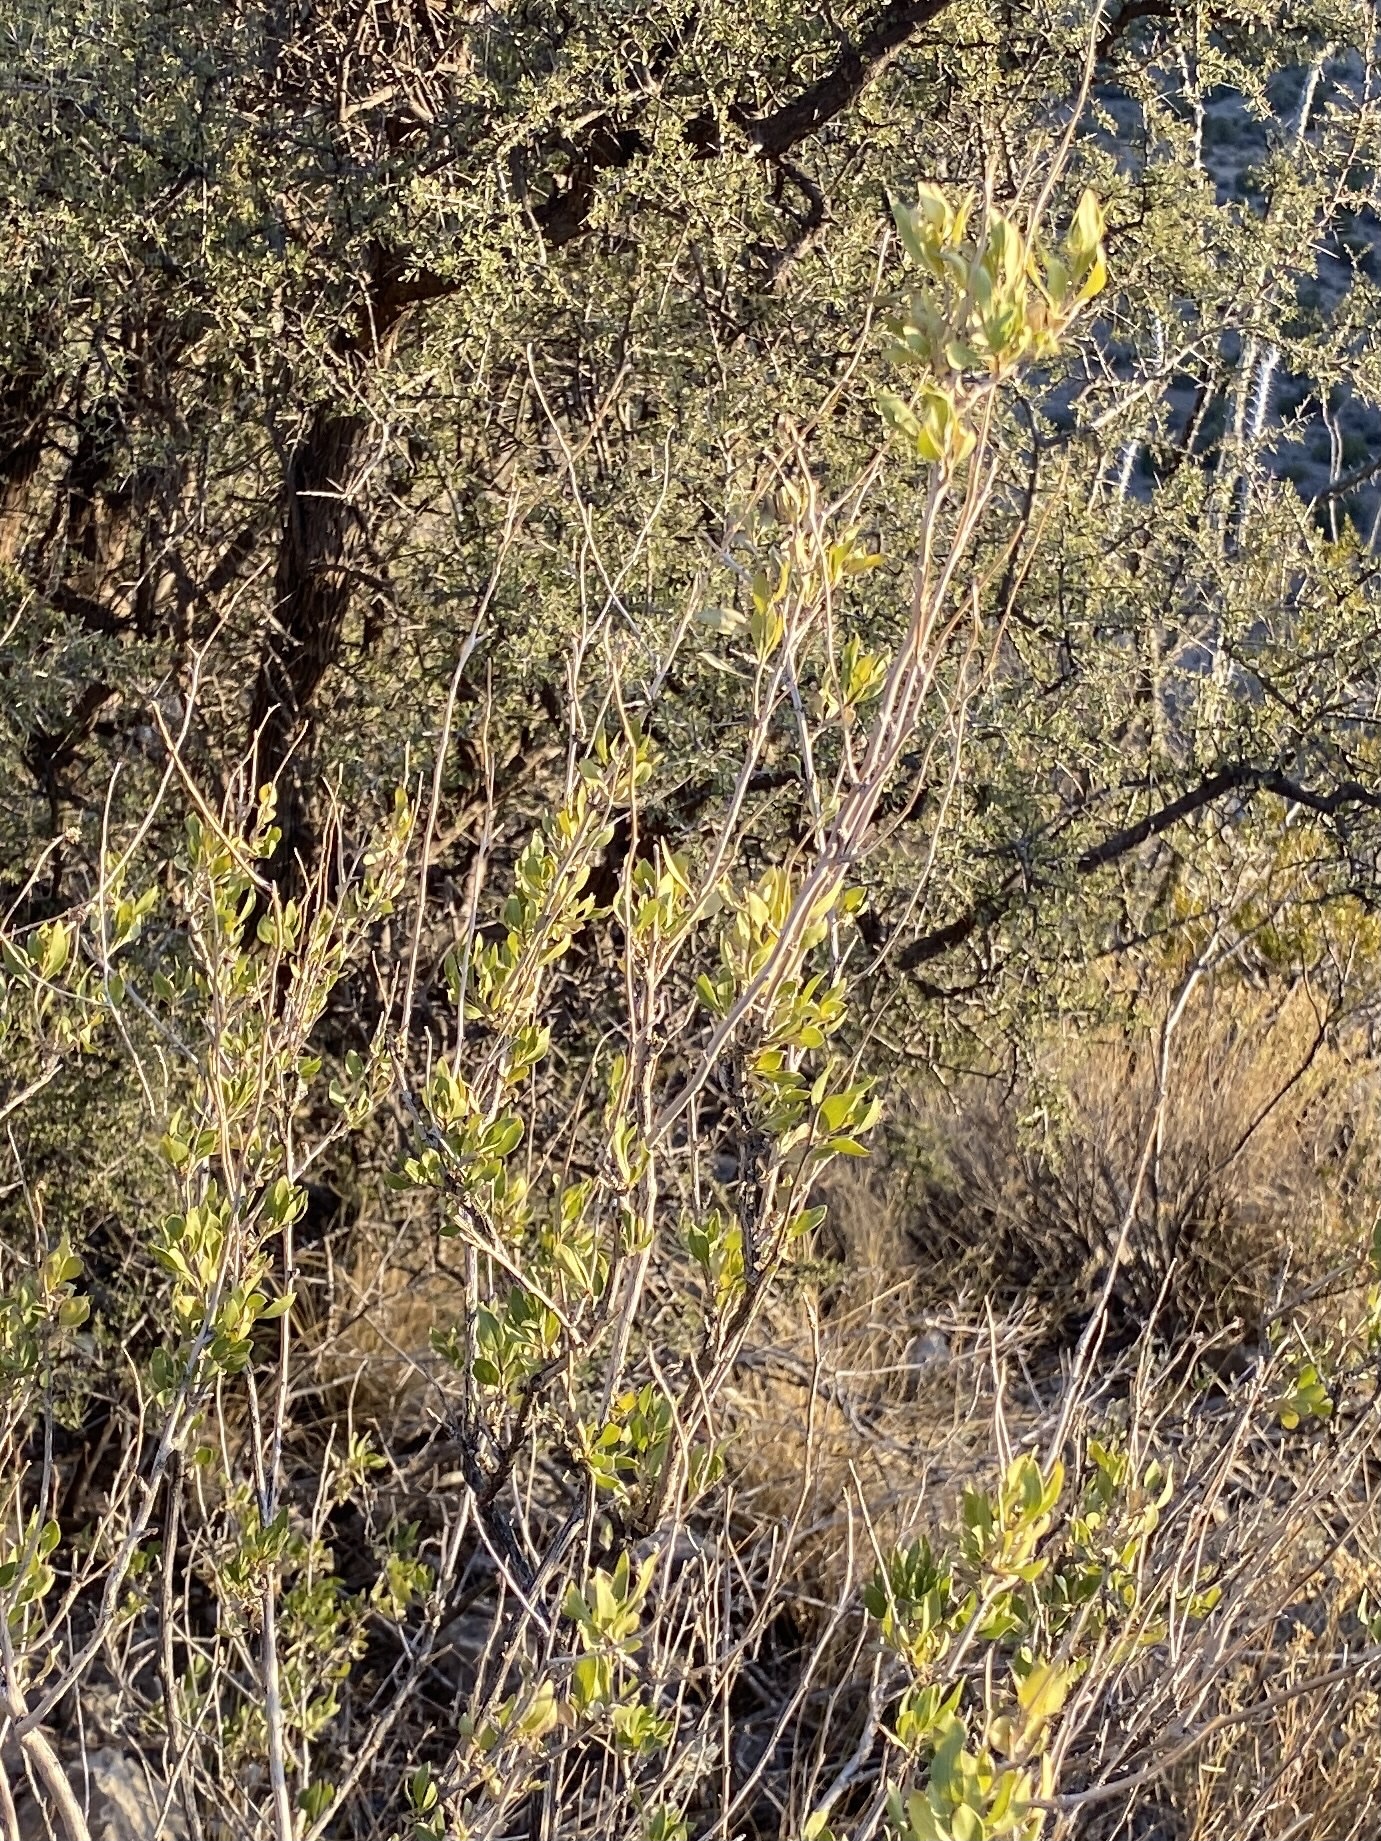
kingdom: Plantae
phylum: Tracheophyta
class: Magnoliopsida
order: Asterales
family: Asteraceae
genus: Flourensia
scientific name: Flourensia cernua
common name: Varnishbush
